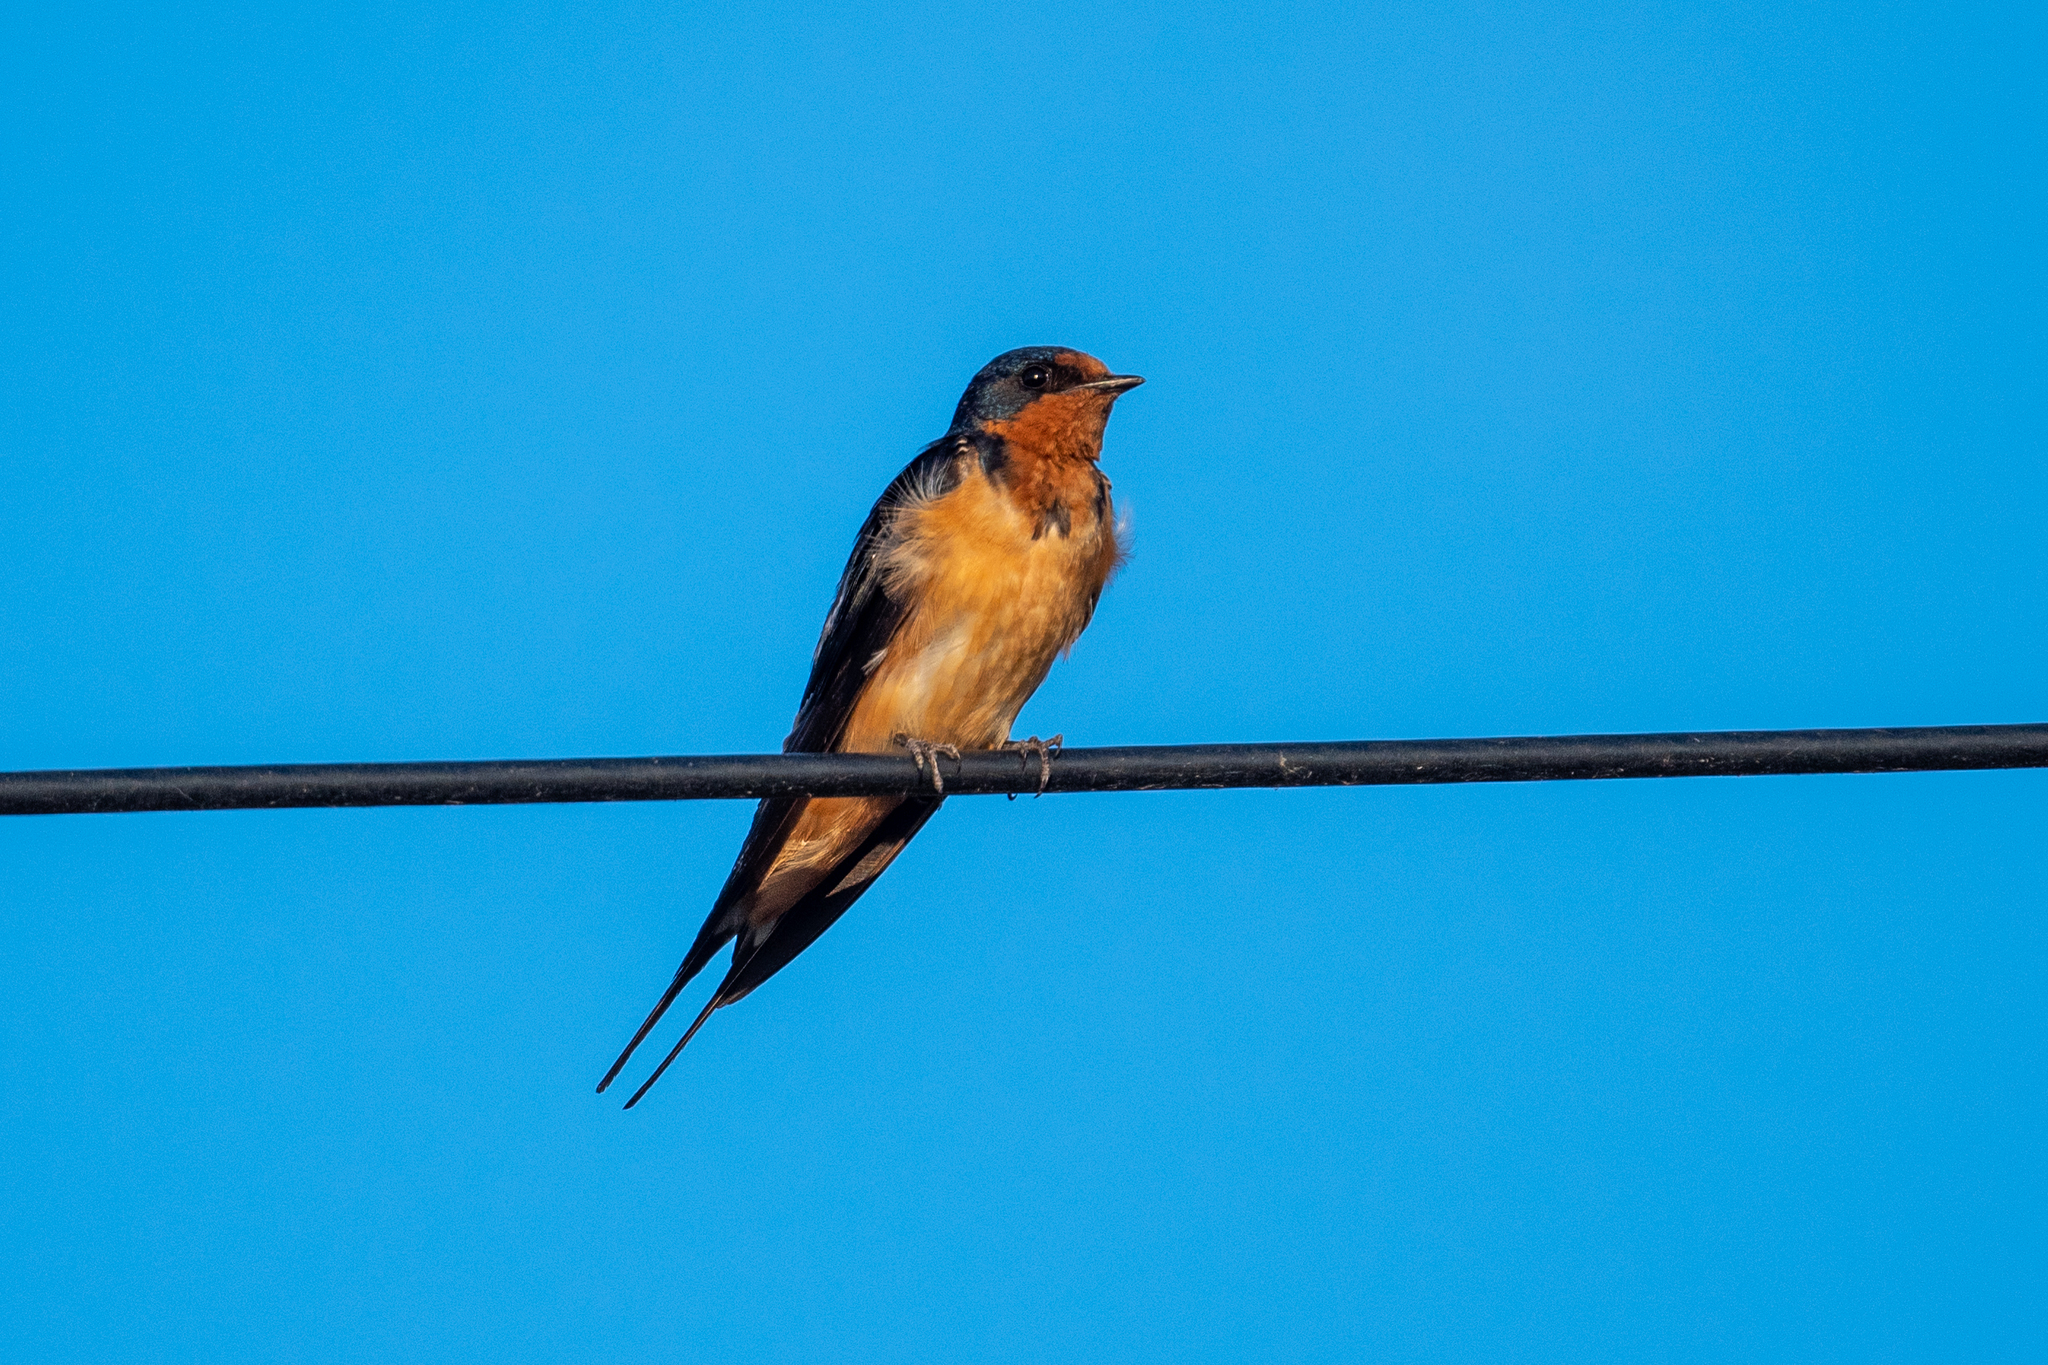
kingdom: Animalia
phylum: Chordata
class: Aves
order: Passeriformes
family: Hirundinidae
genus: Hirundo
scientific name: Hirundo rustica
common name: Barn swallow
